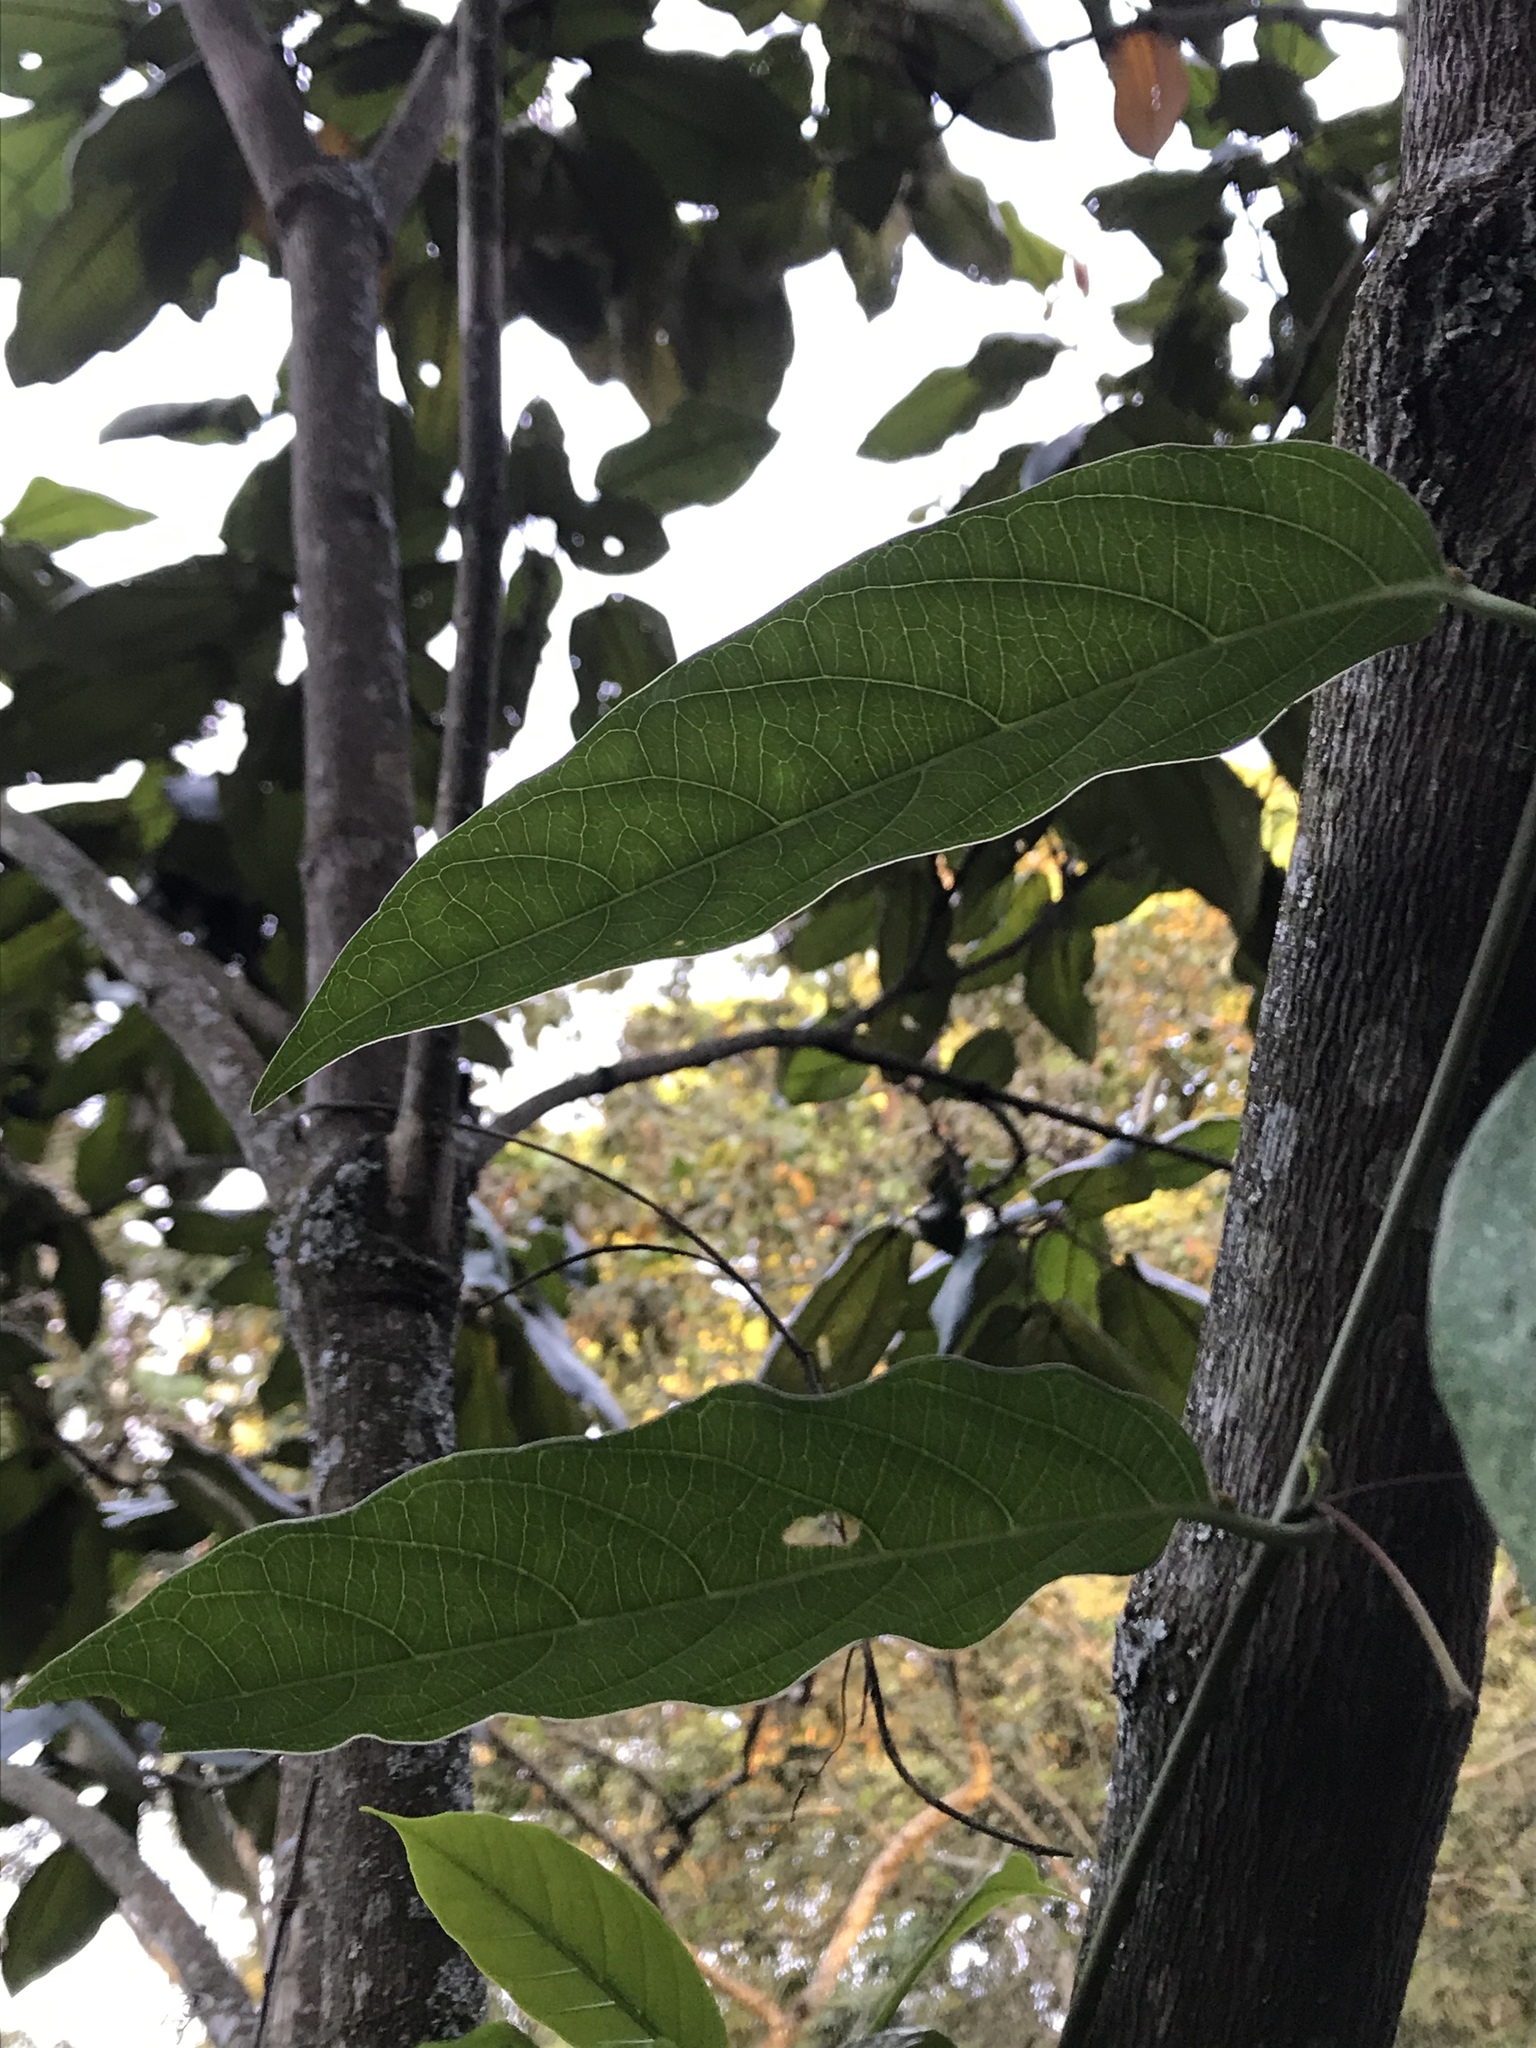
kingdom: Plantae
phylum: Tracheophyta
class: Magnoliopsida
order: Malpighiales
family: Passifloraceae
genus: Passiflora
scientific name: Passiflora acuminata
